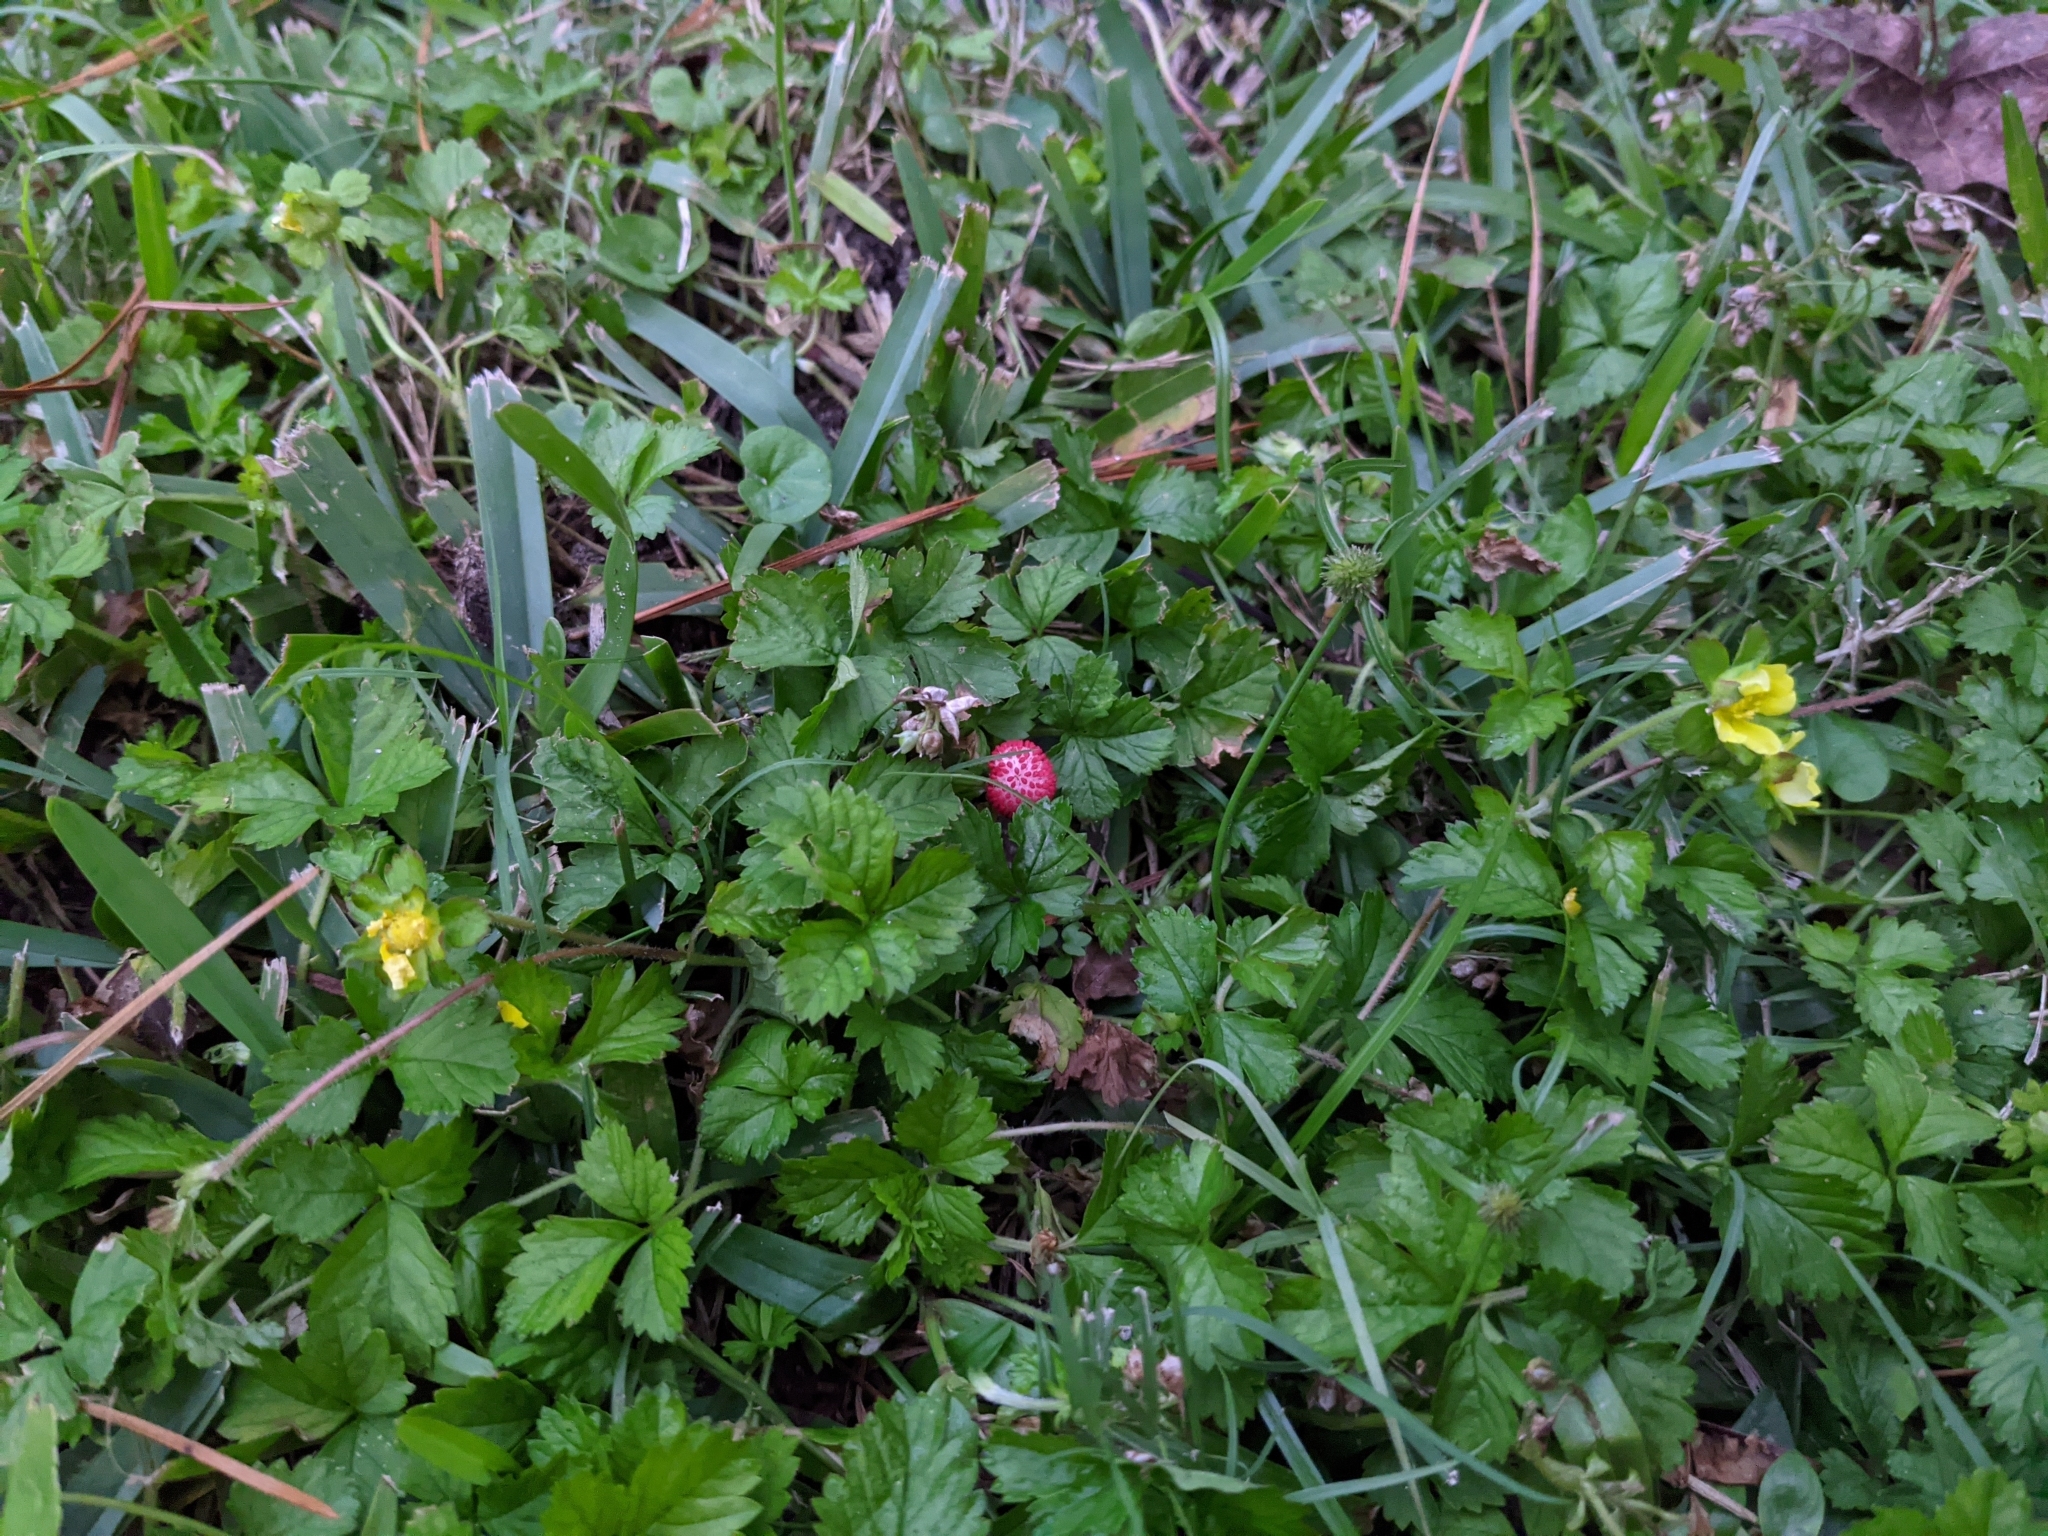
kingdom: Plantae
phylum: Tracheophyta
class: Magnoliopsida
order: Rosales
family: Rosaceae
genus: Potentilla
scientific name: Potentilla indica
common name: Yellow-flowered strawberry
